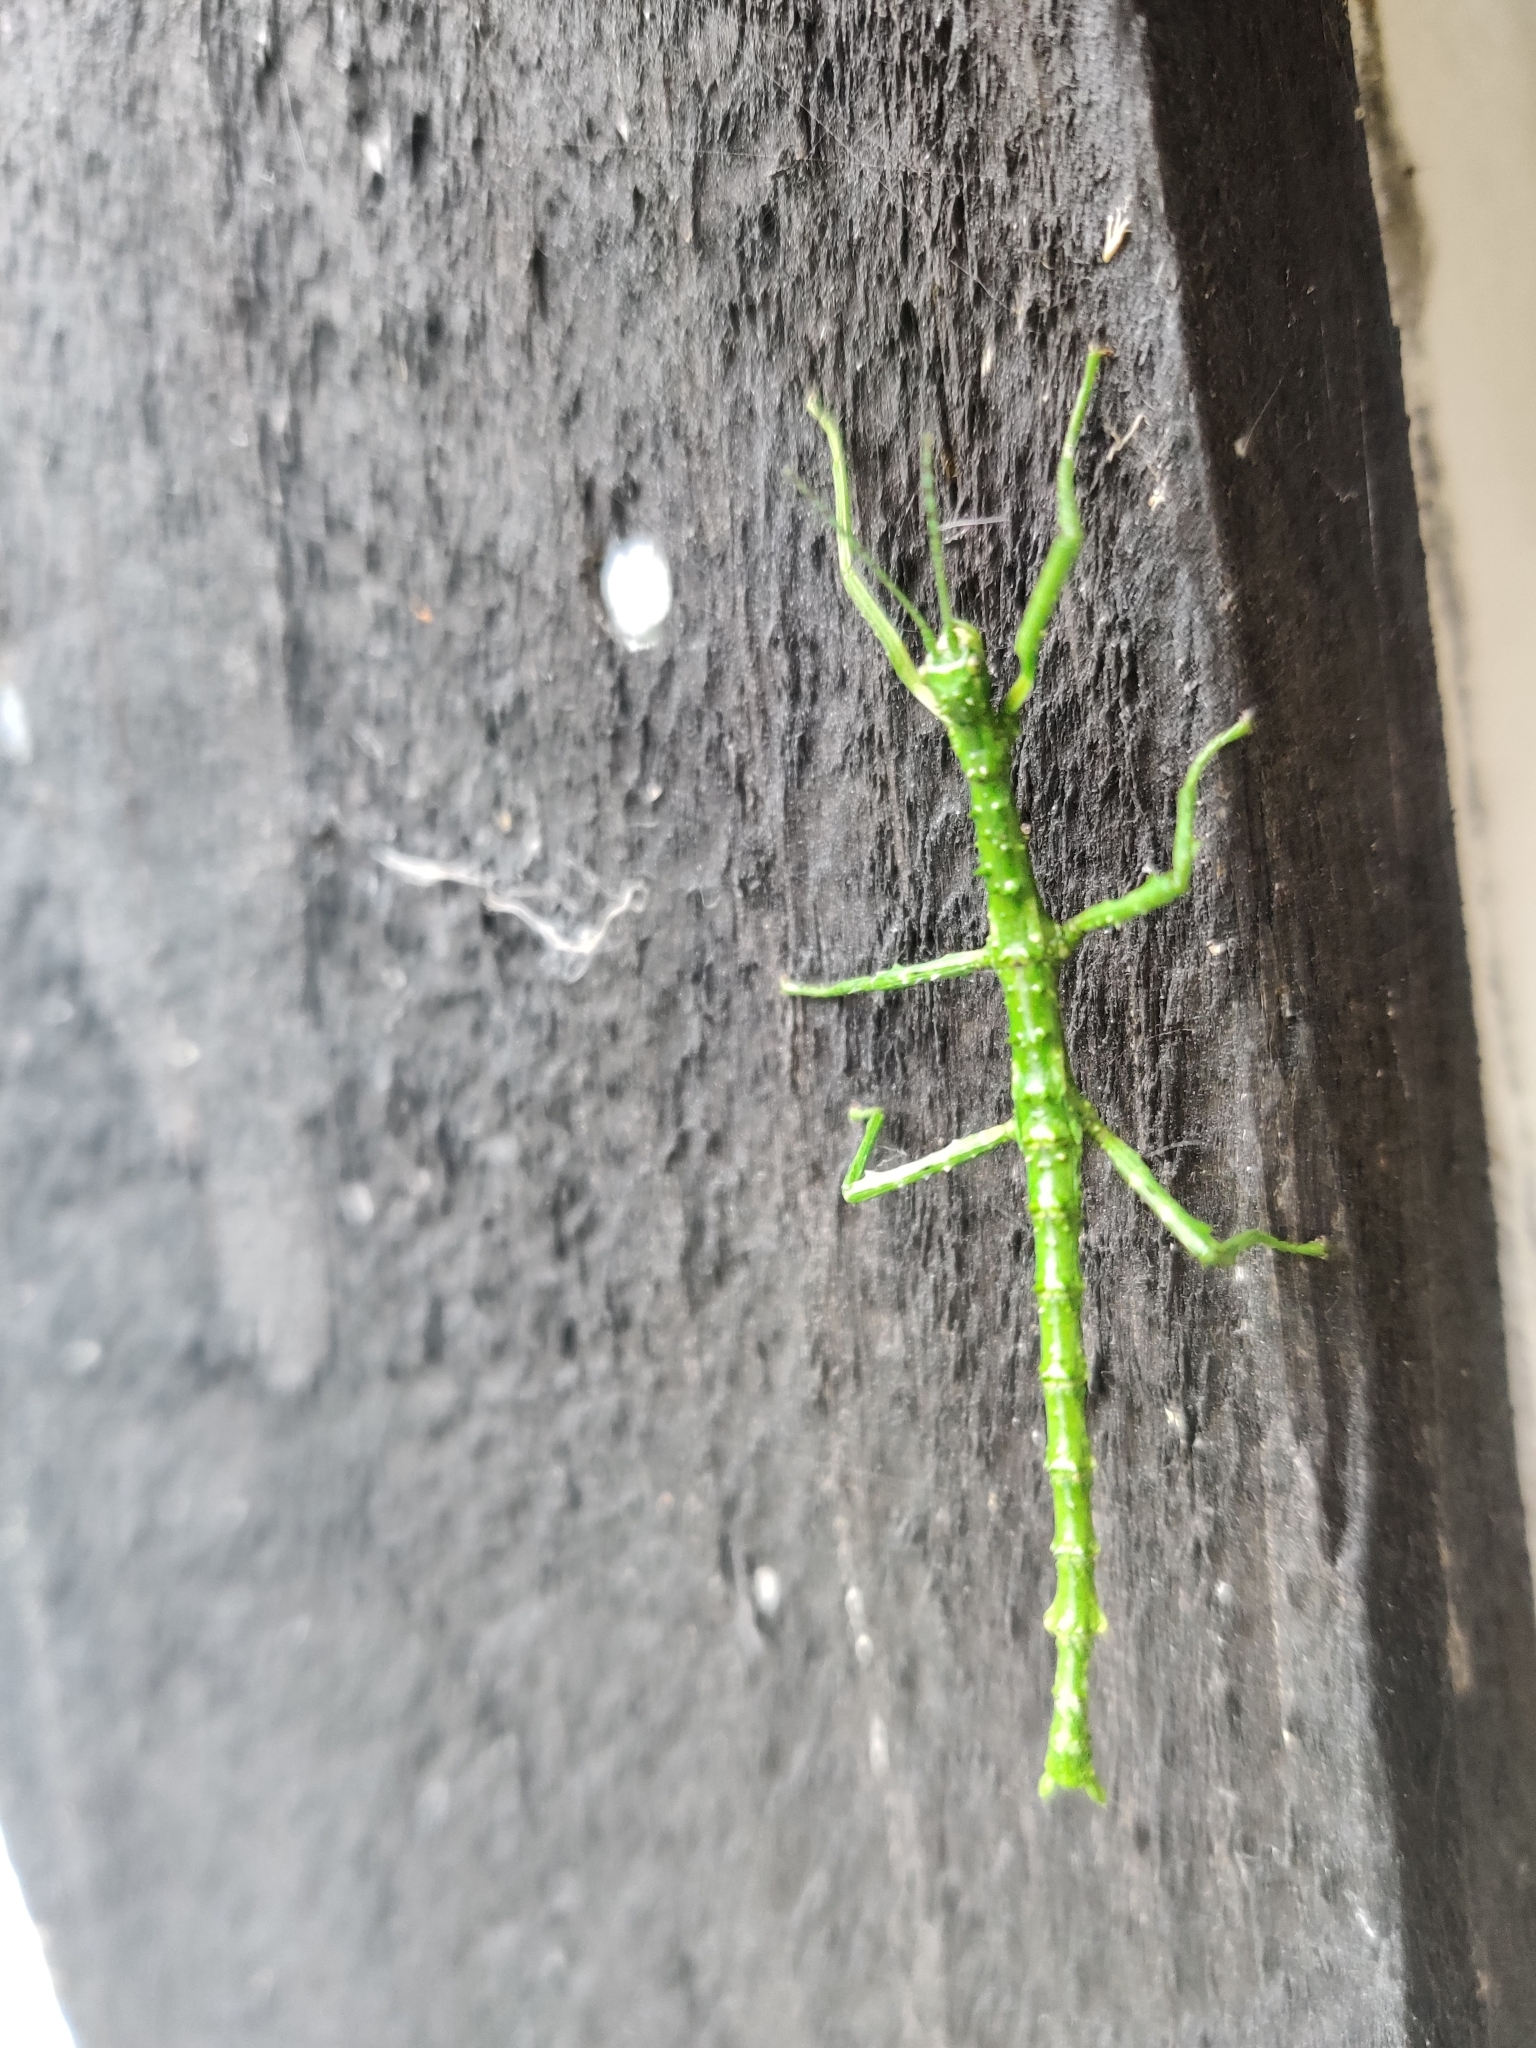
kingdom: Animalia
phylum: Arthropoda
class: Insecta
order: Phasmida
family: Phasmatidae
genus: Acanthoxyla
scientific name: Acanthoxyla prasina
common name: Black-spined stick insect
